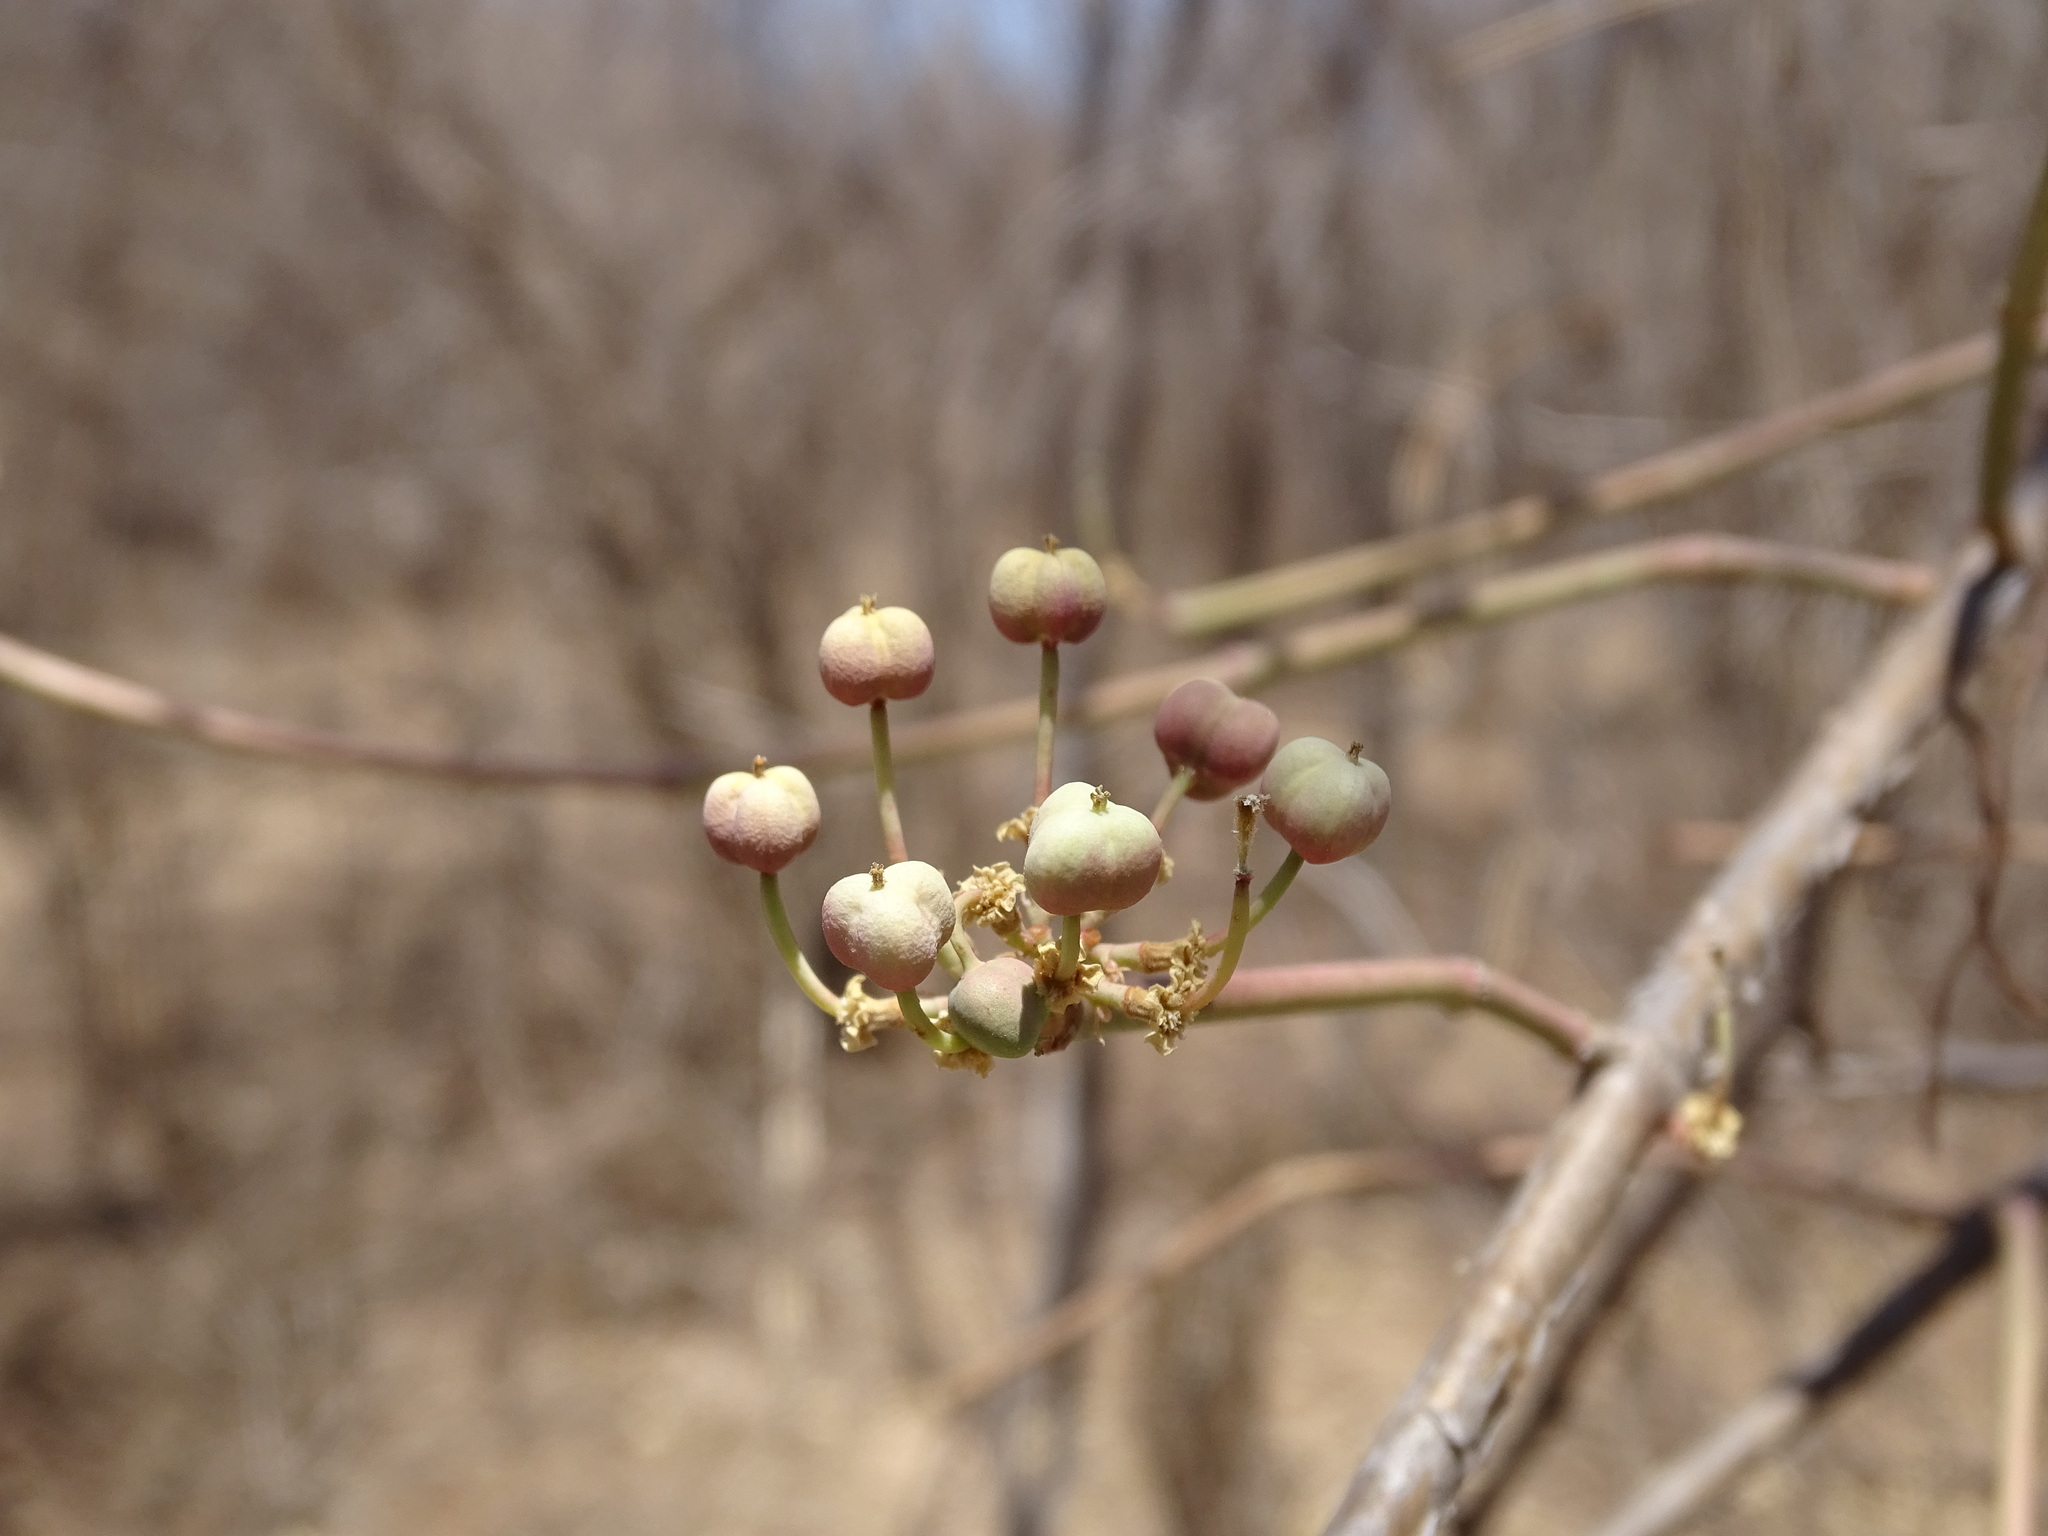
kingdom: Plantae
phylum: Tracheophyta
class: Magnoliopsida
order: Malpighiales
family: Euphorbiaceae
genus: Euphorbia
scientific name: Euphorbia cymosa
